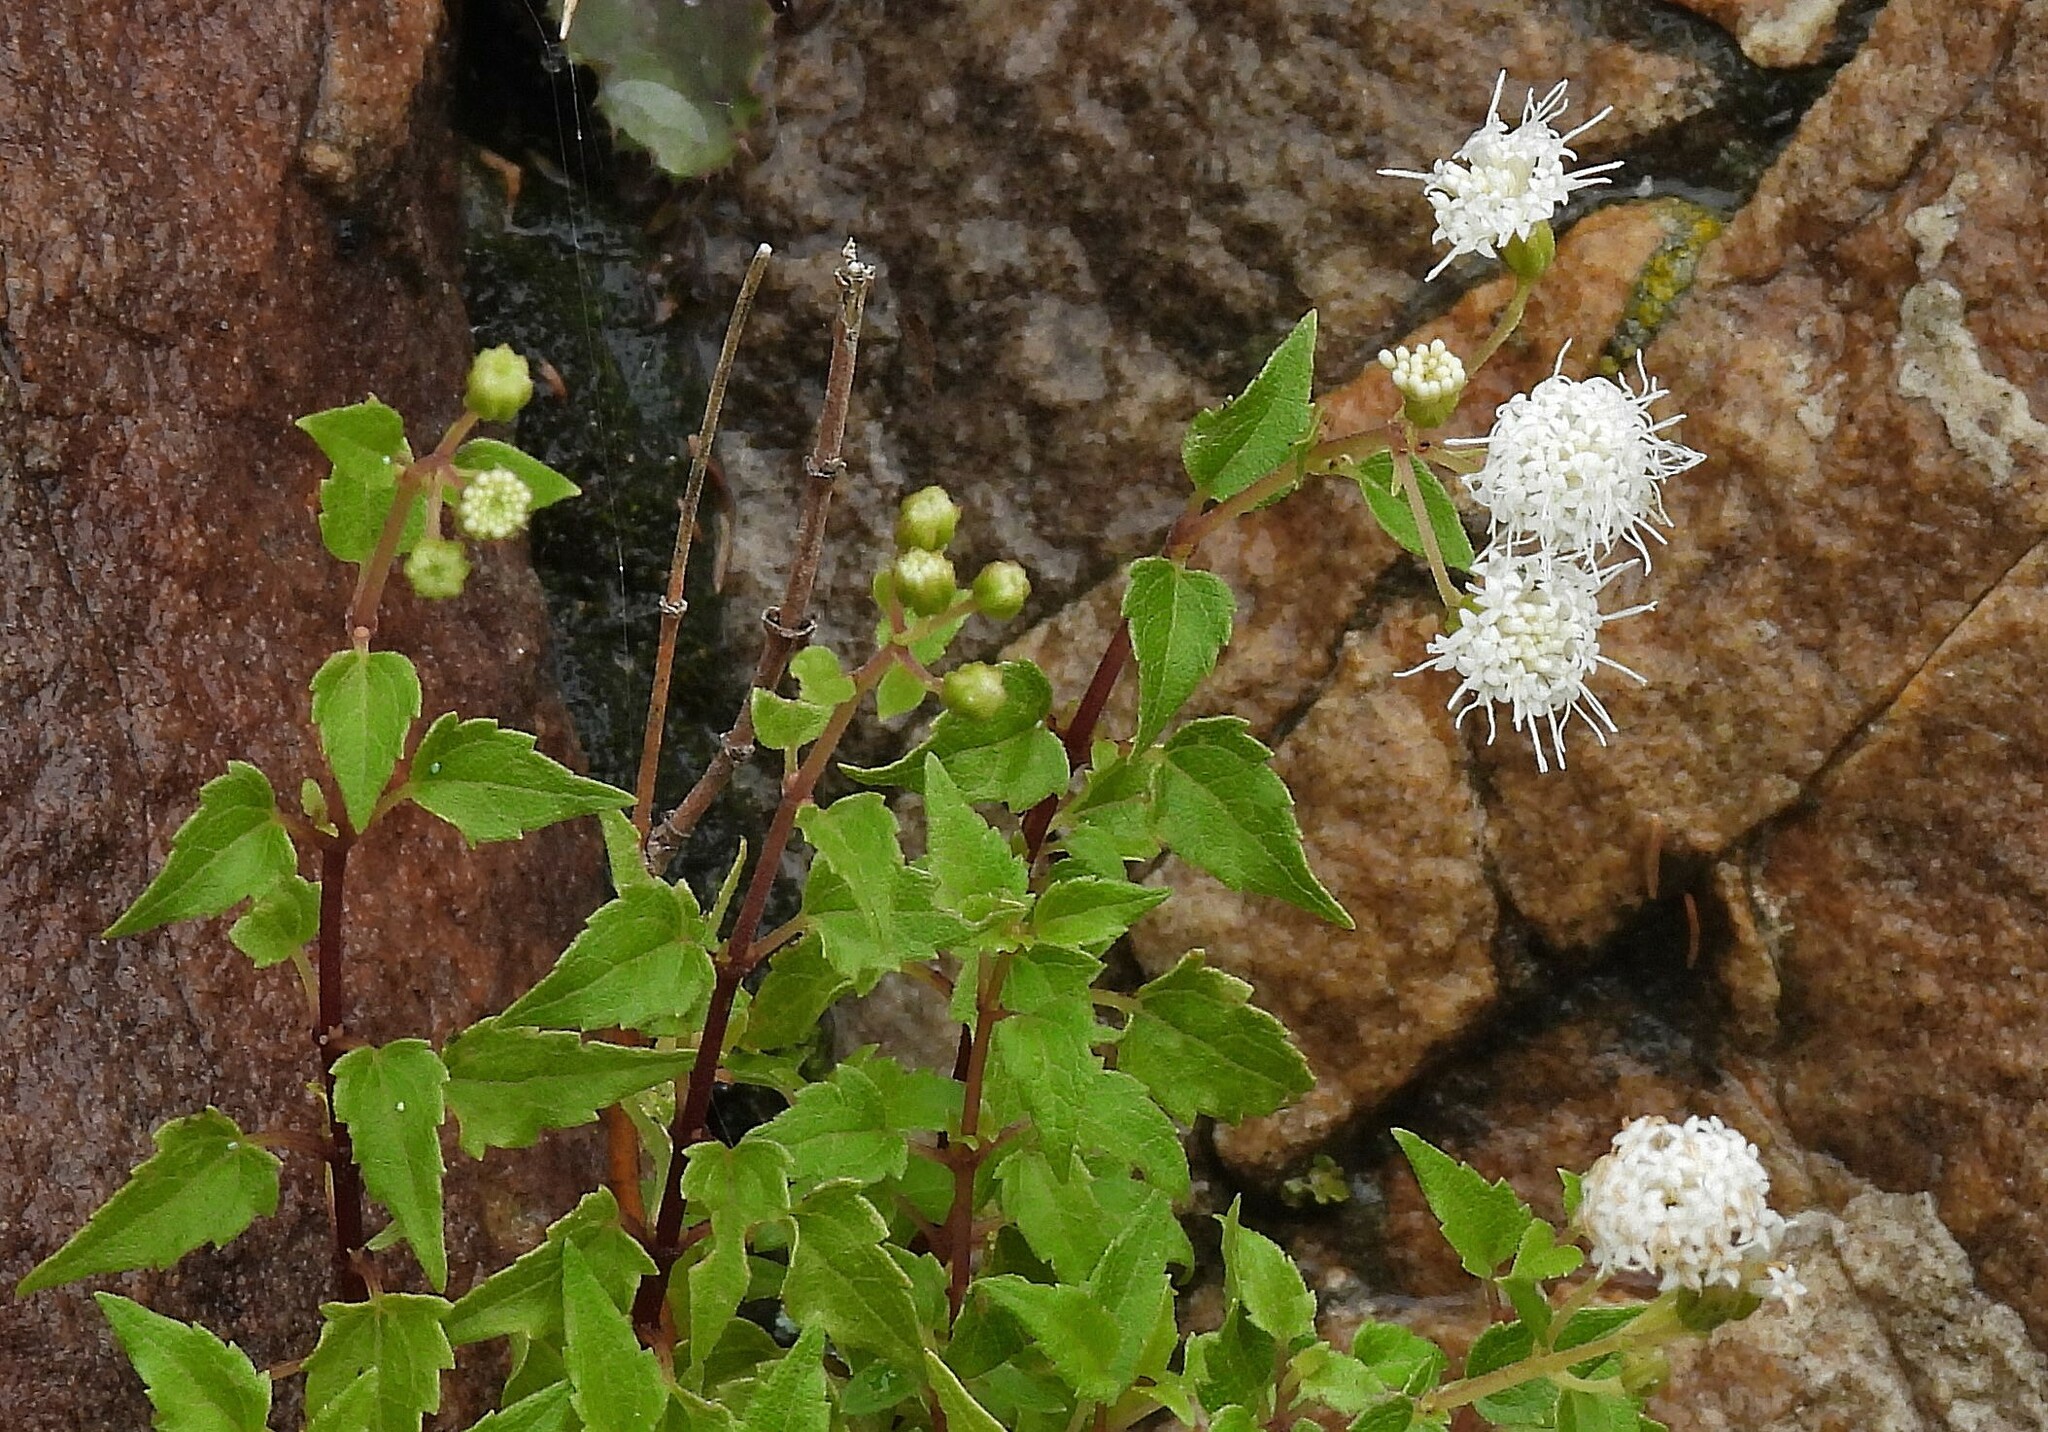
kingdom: Plantae
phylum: Tracheophyta
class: Magnoliopsida
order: Asterales
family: Asteraceae
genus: Ageratina
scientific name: Ageratina glechonophylla
